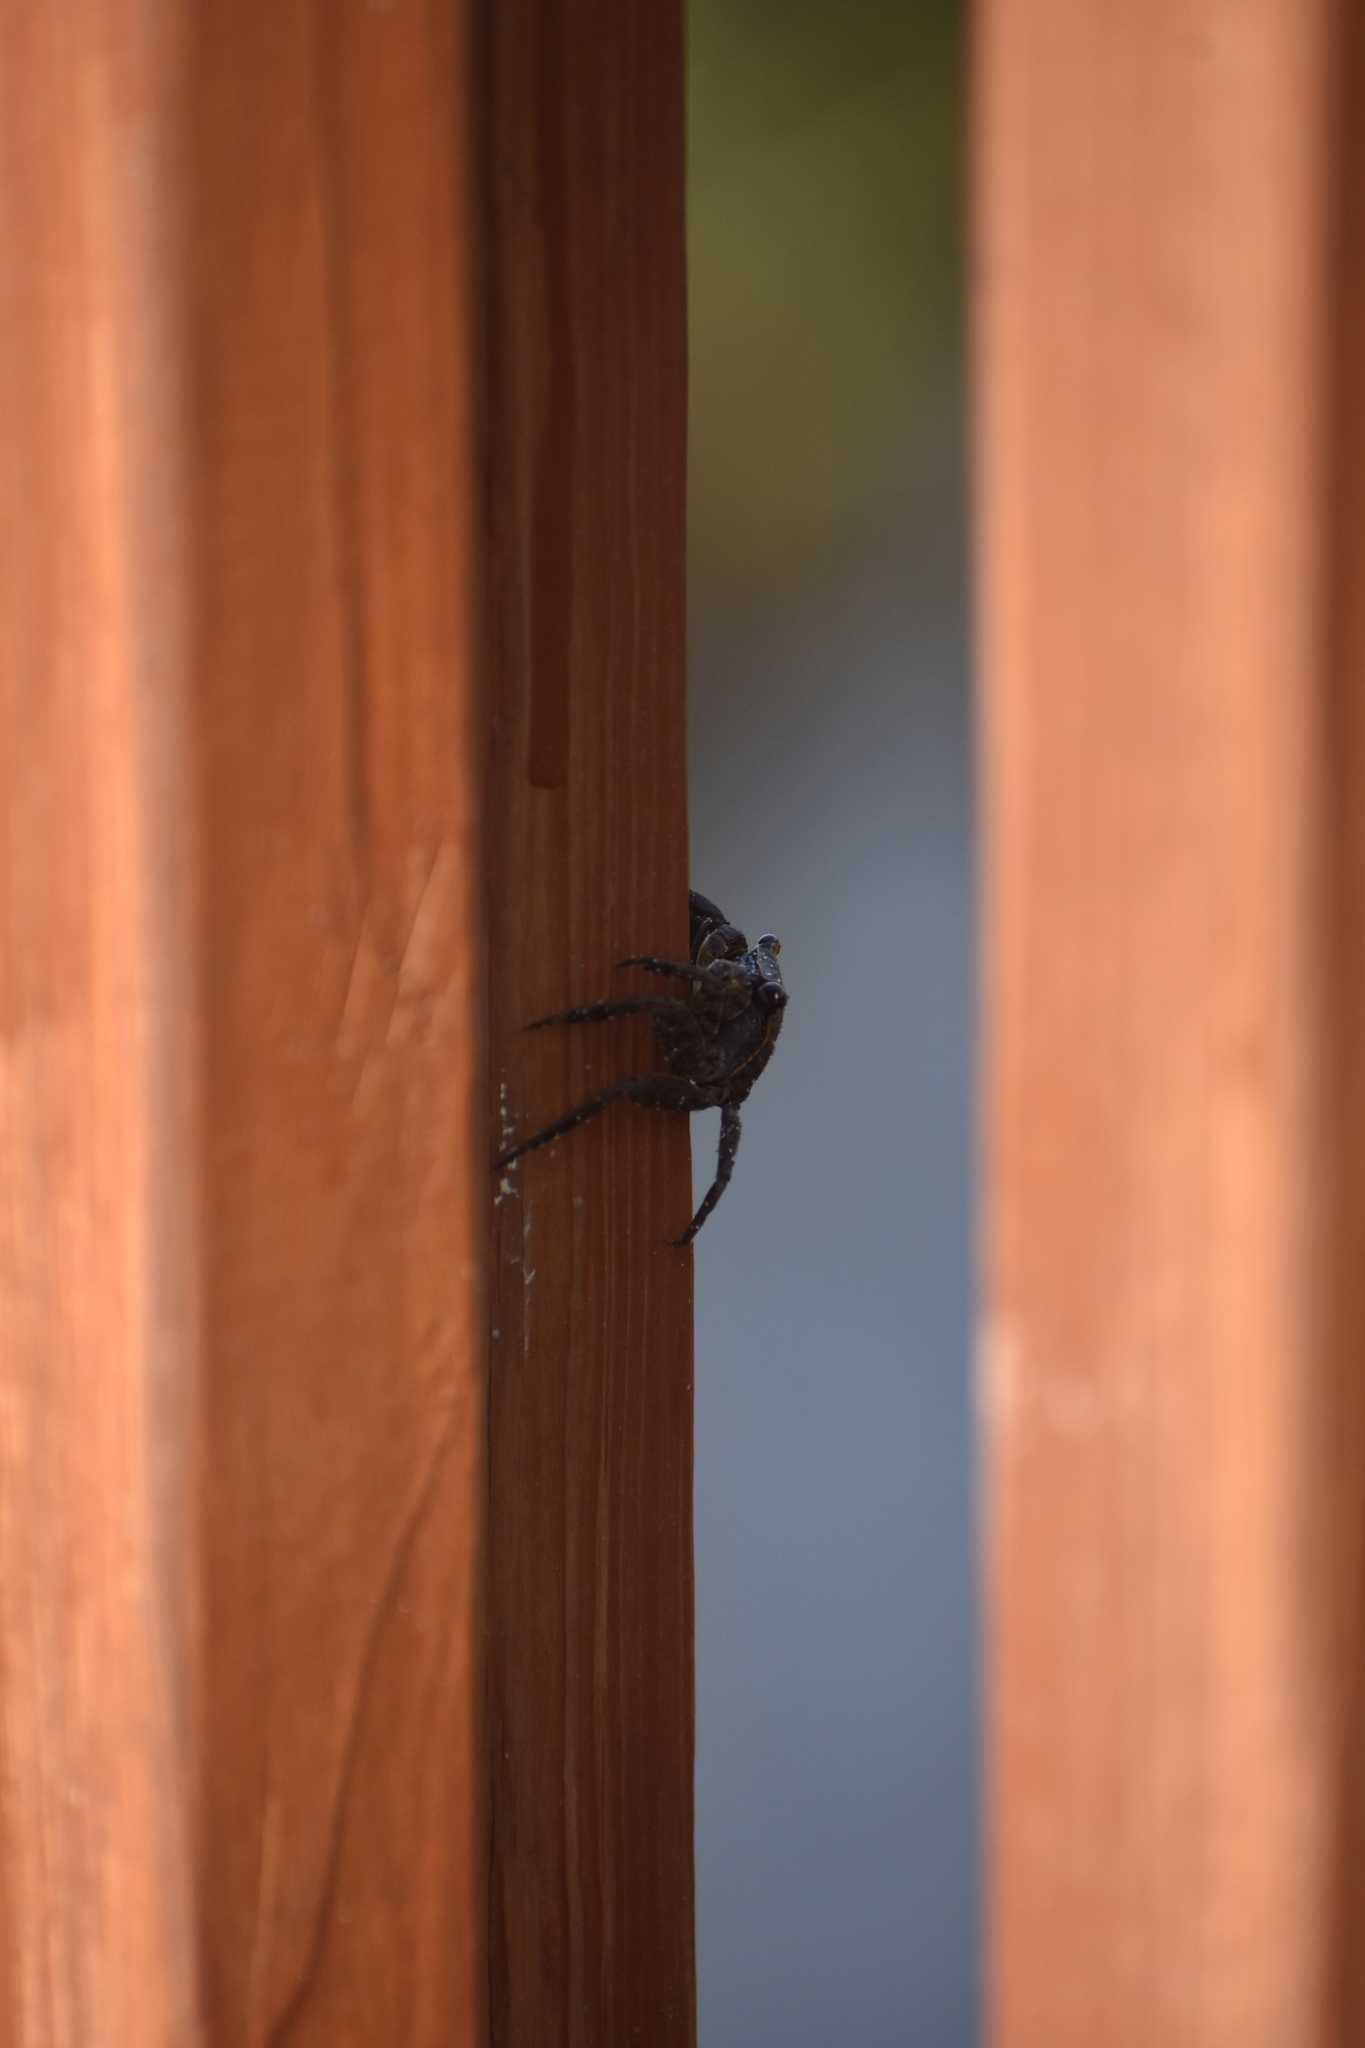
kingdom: Animalia
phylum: Arthropoda
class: Malacostraca
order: Decapoda
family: Sesarmidae
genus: Armases
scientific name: Armases cinereum
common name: Squareback marsh crab
